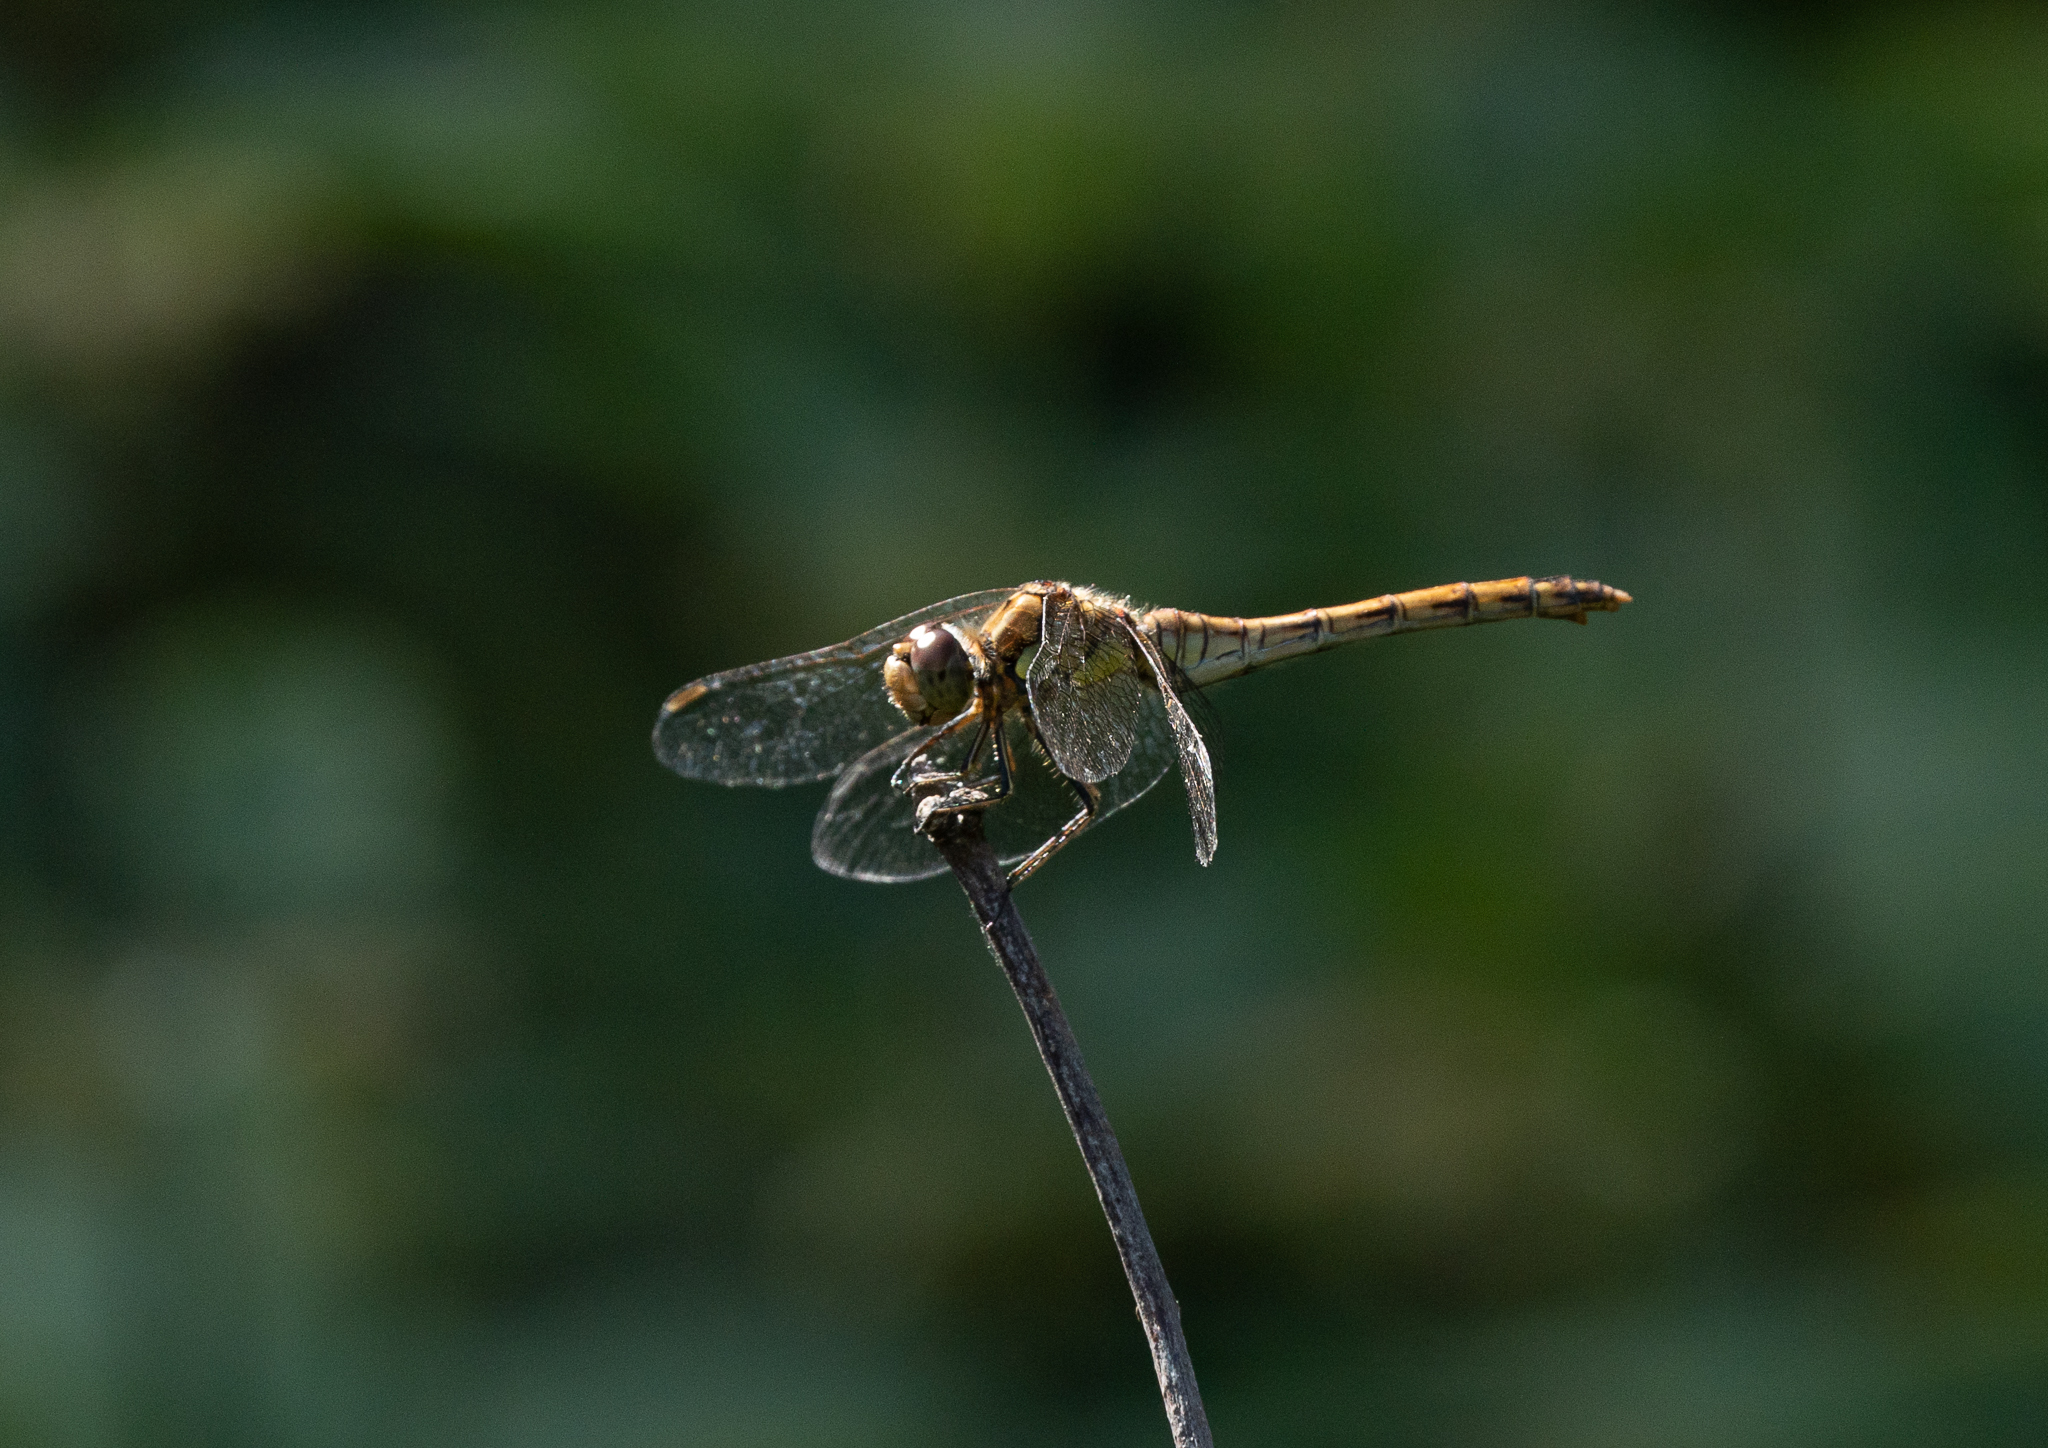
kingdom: Animalia
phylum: Arthropoda
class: Insecta
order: Odonata
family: Libellulidae
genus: Sympetrum
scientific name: Sympetrum striolatum
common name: Common darter
